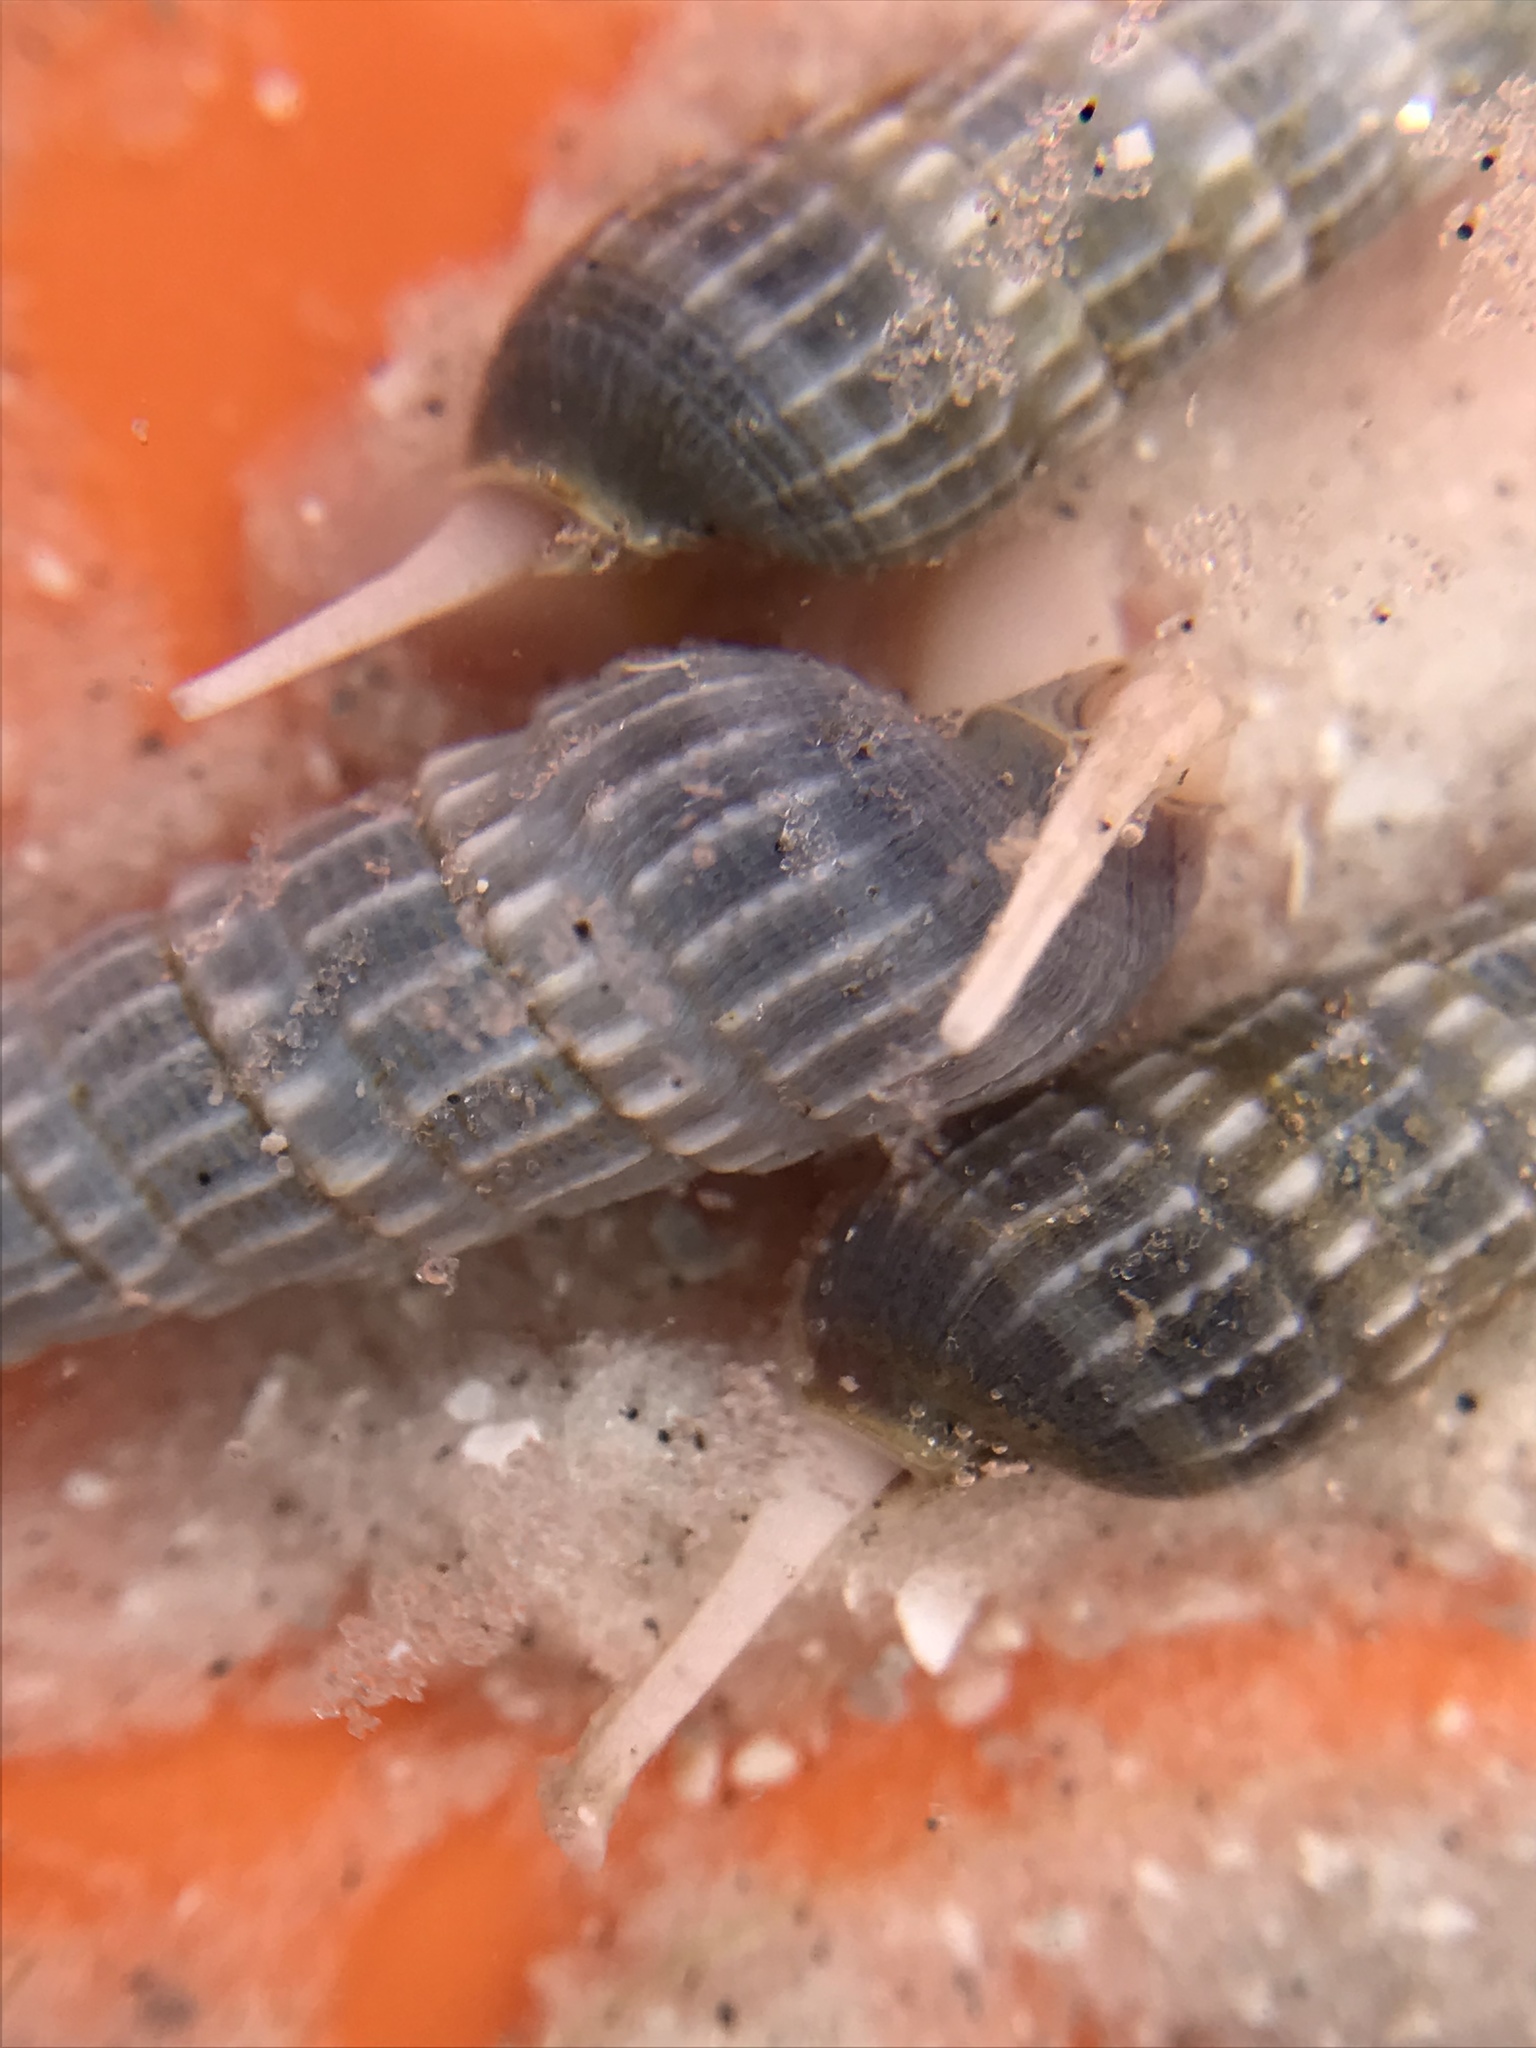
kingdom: Animalia
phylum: Mollusca
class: Gastropoda
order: Neogastropoda
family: Terebridae
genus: Neoterebra
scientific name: Neoterebra dislocata
